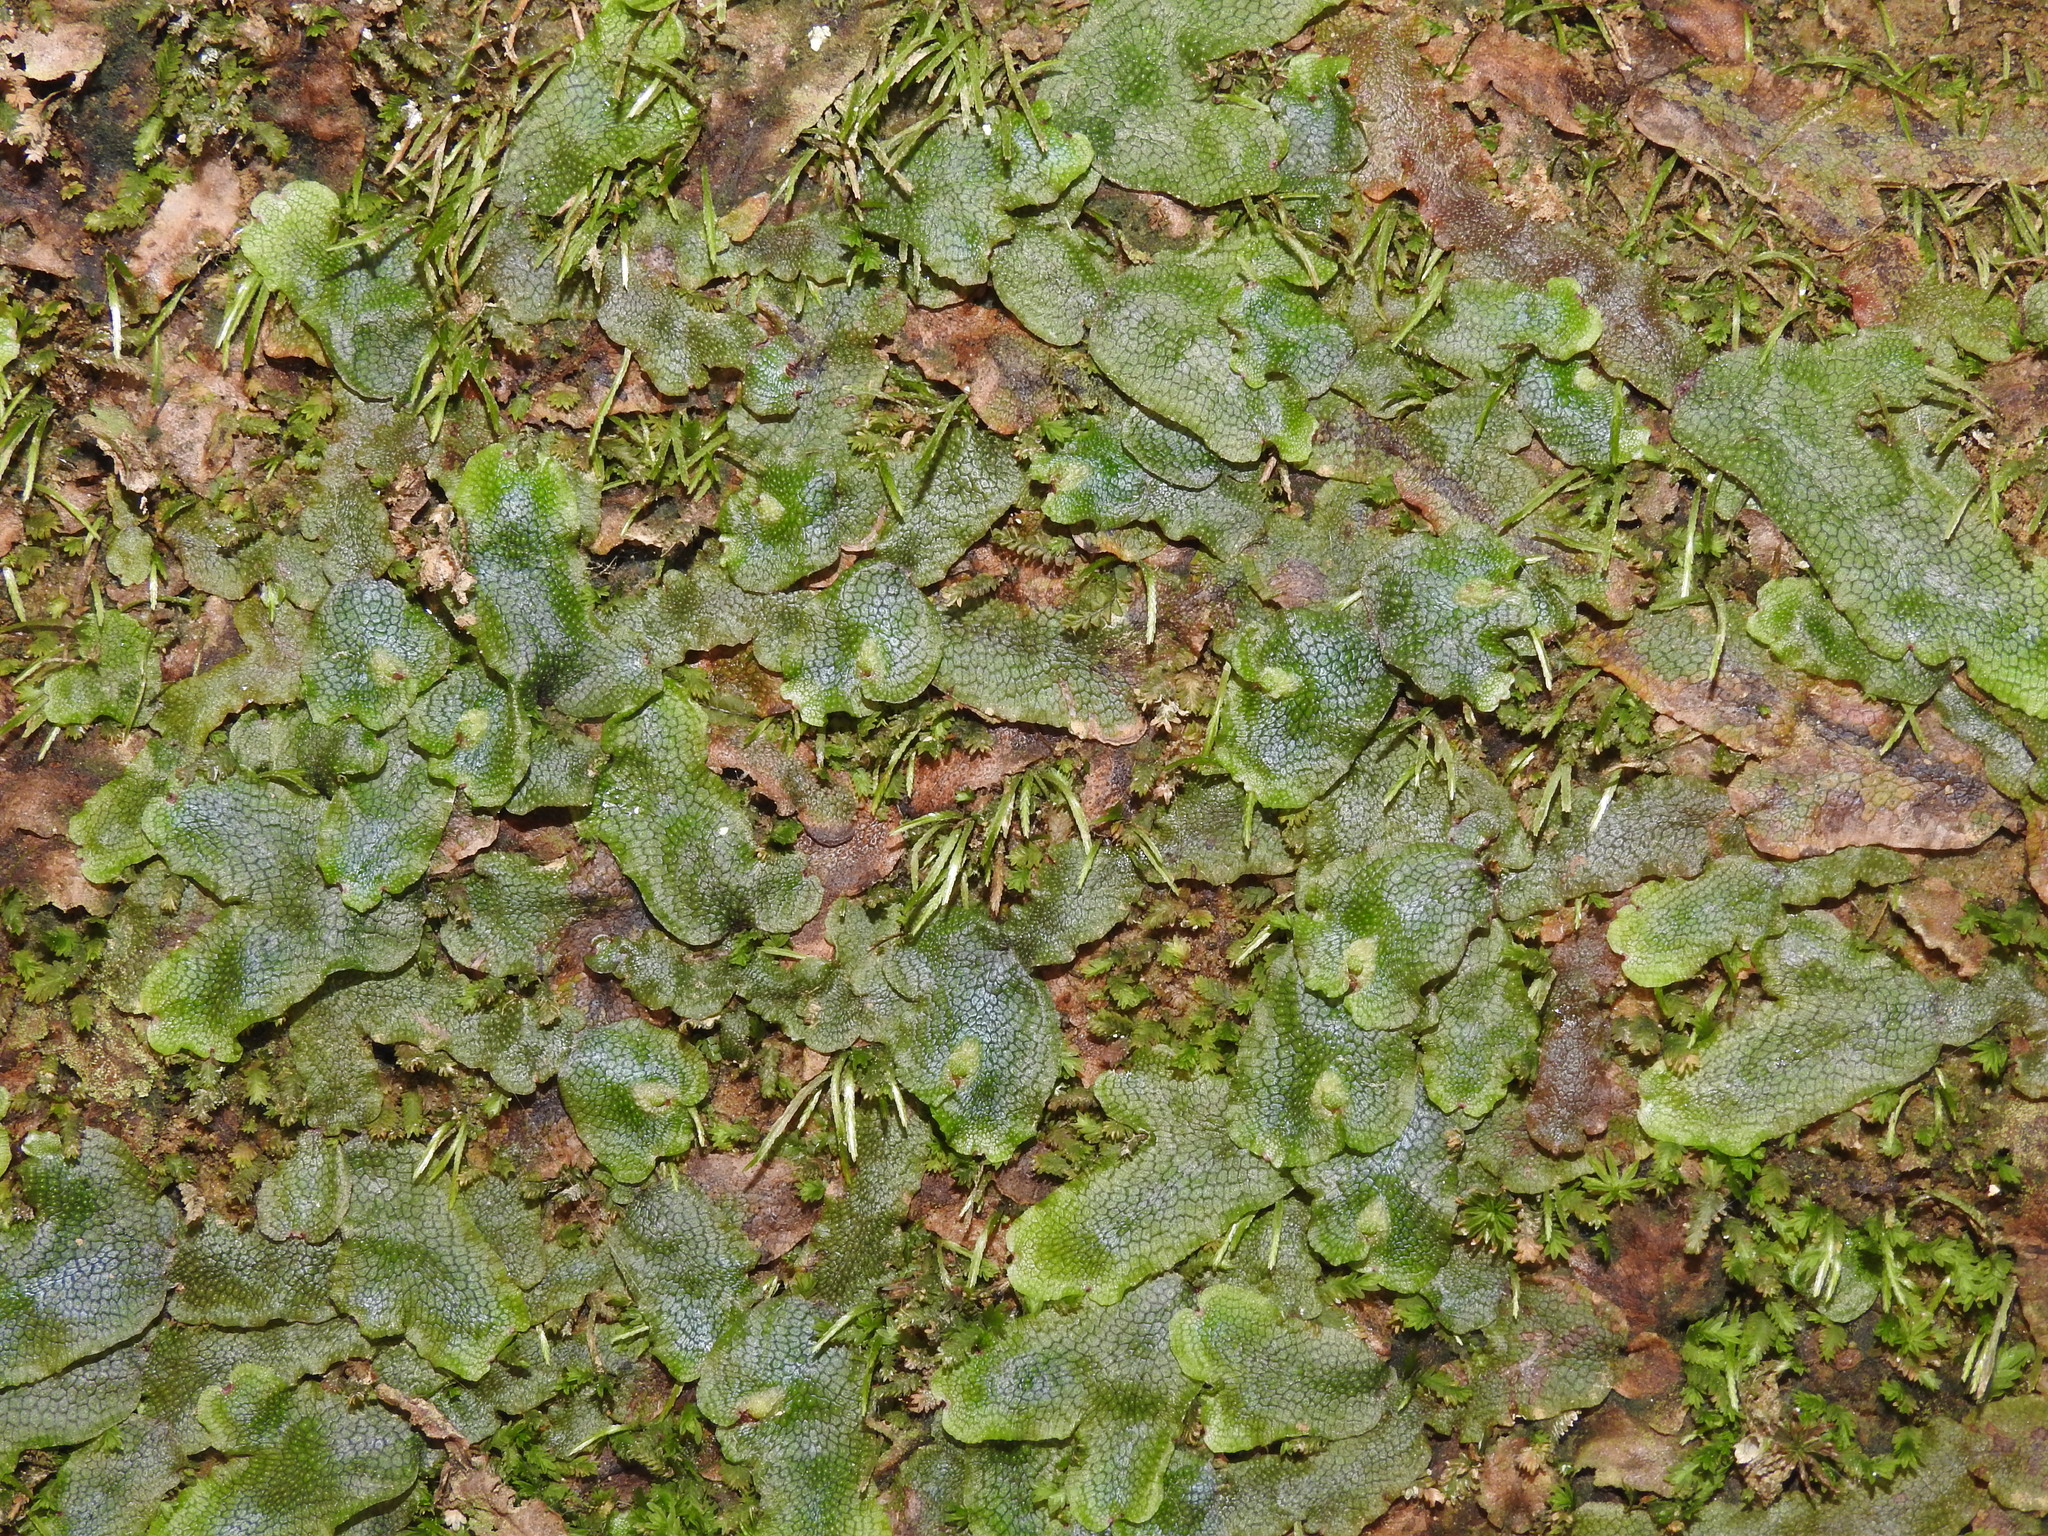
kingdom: Plantae
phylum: Marchantiophyta
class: Marchantiopsida
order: Marchantiales
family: Conocephalaceae
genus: Conocephalum
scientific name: Conocephalum salebrosum
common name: Cat-tongue liverwort
